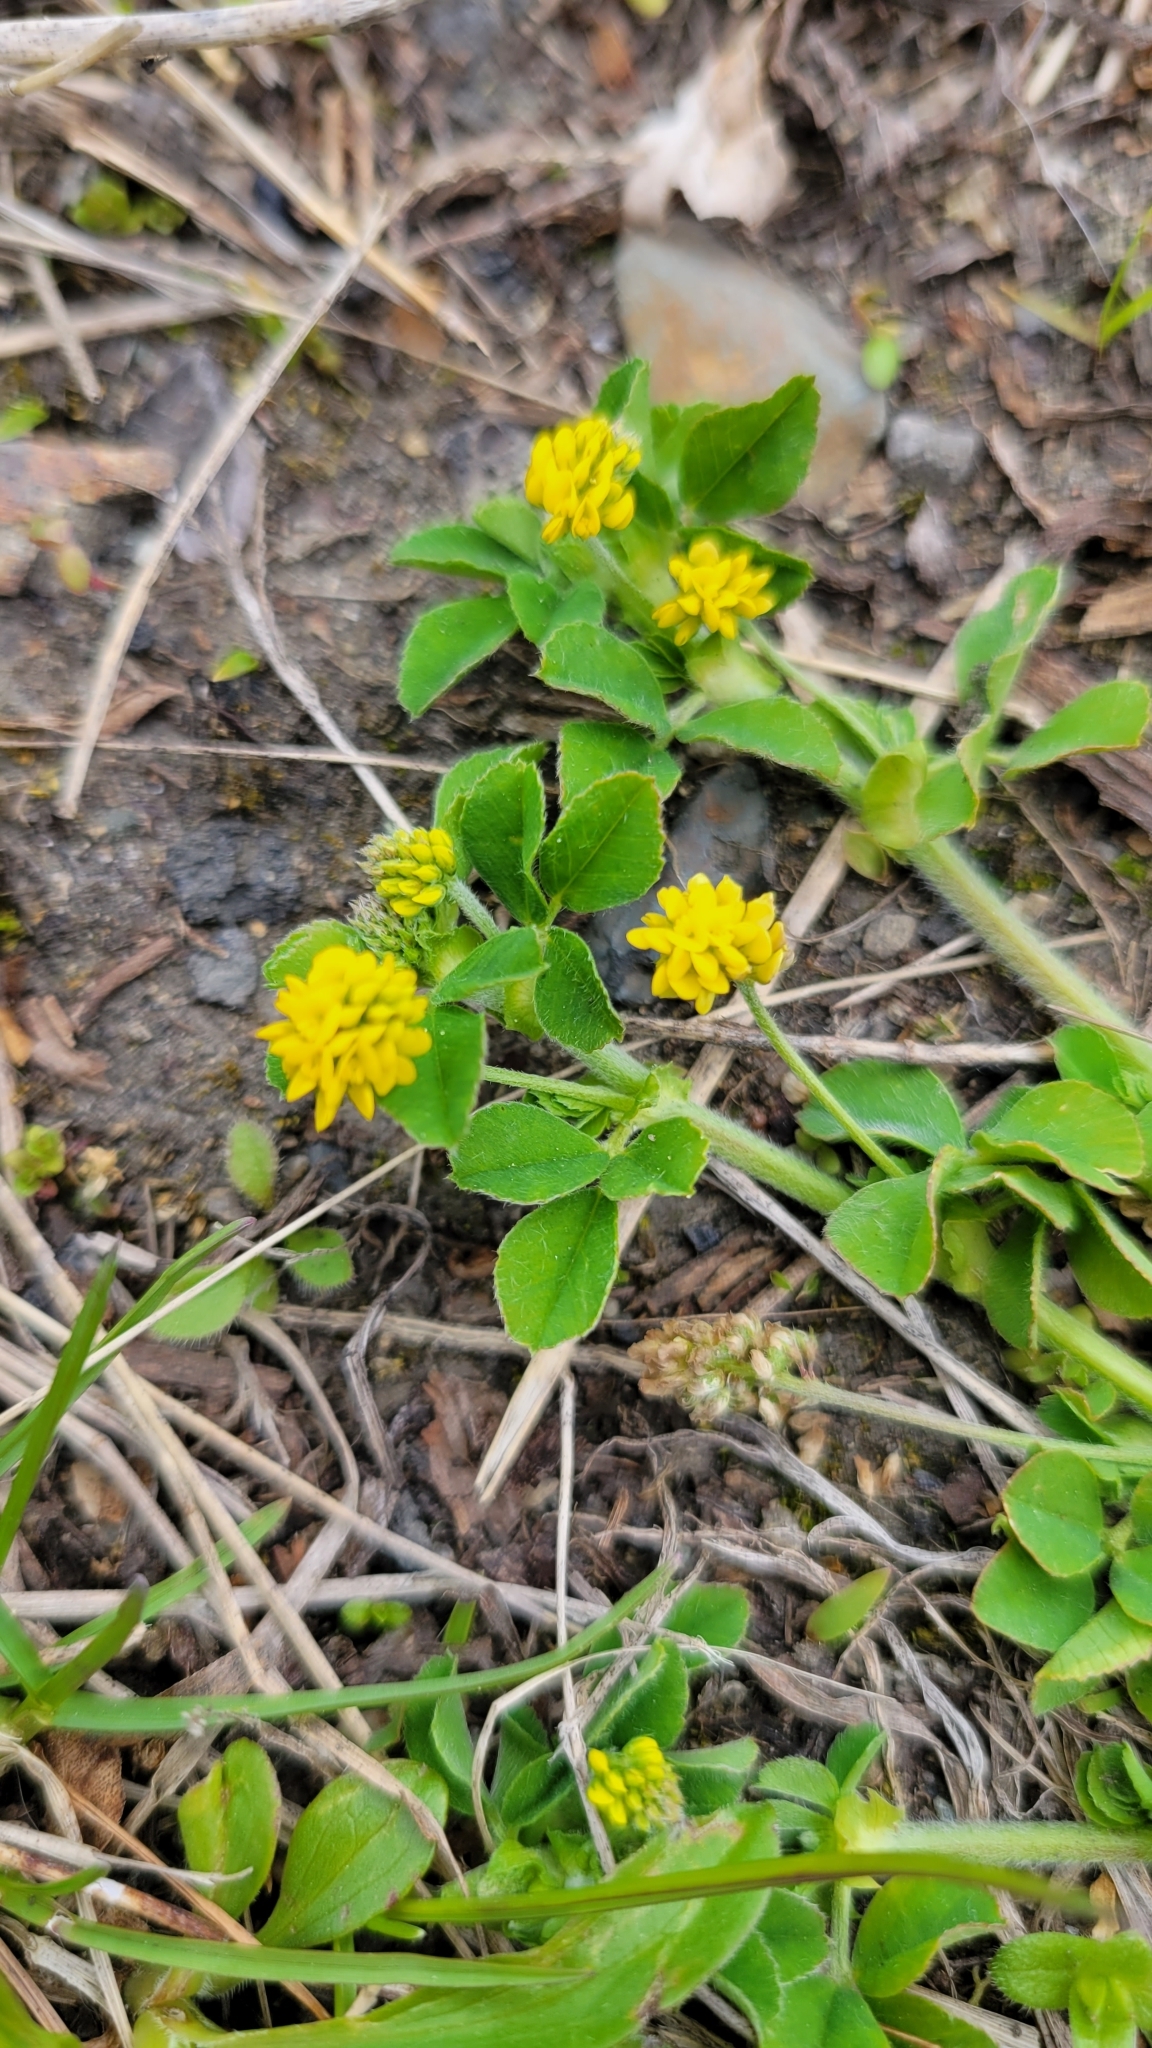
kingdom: Plantae
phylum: Tracheophyta
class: Magnoliopsida
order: Fabales
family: Fabaceae
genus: Medicago
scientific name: Medicago lupulina
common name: Black medick
